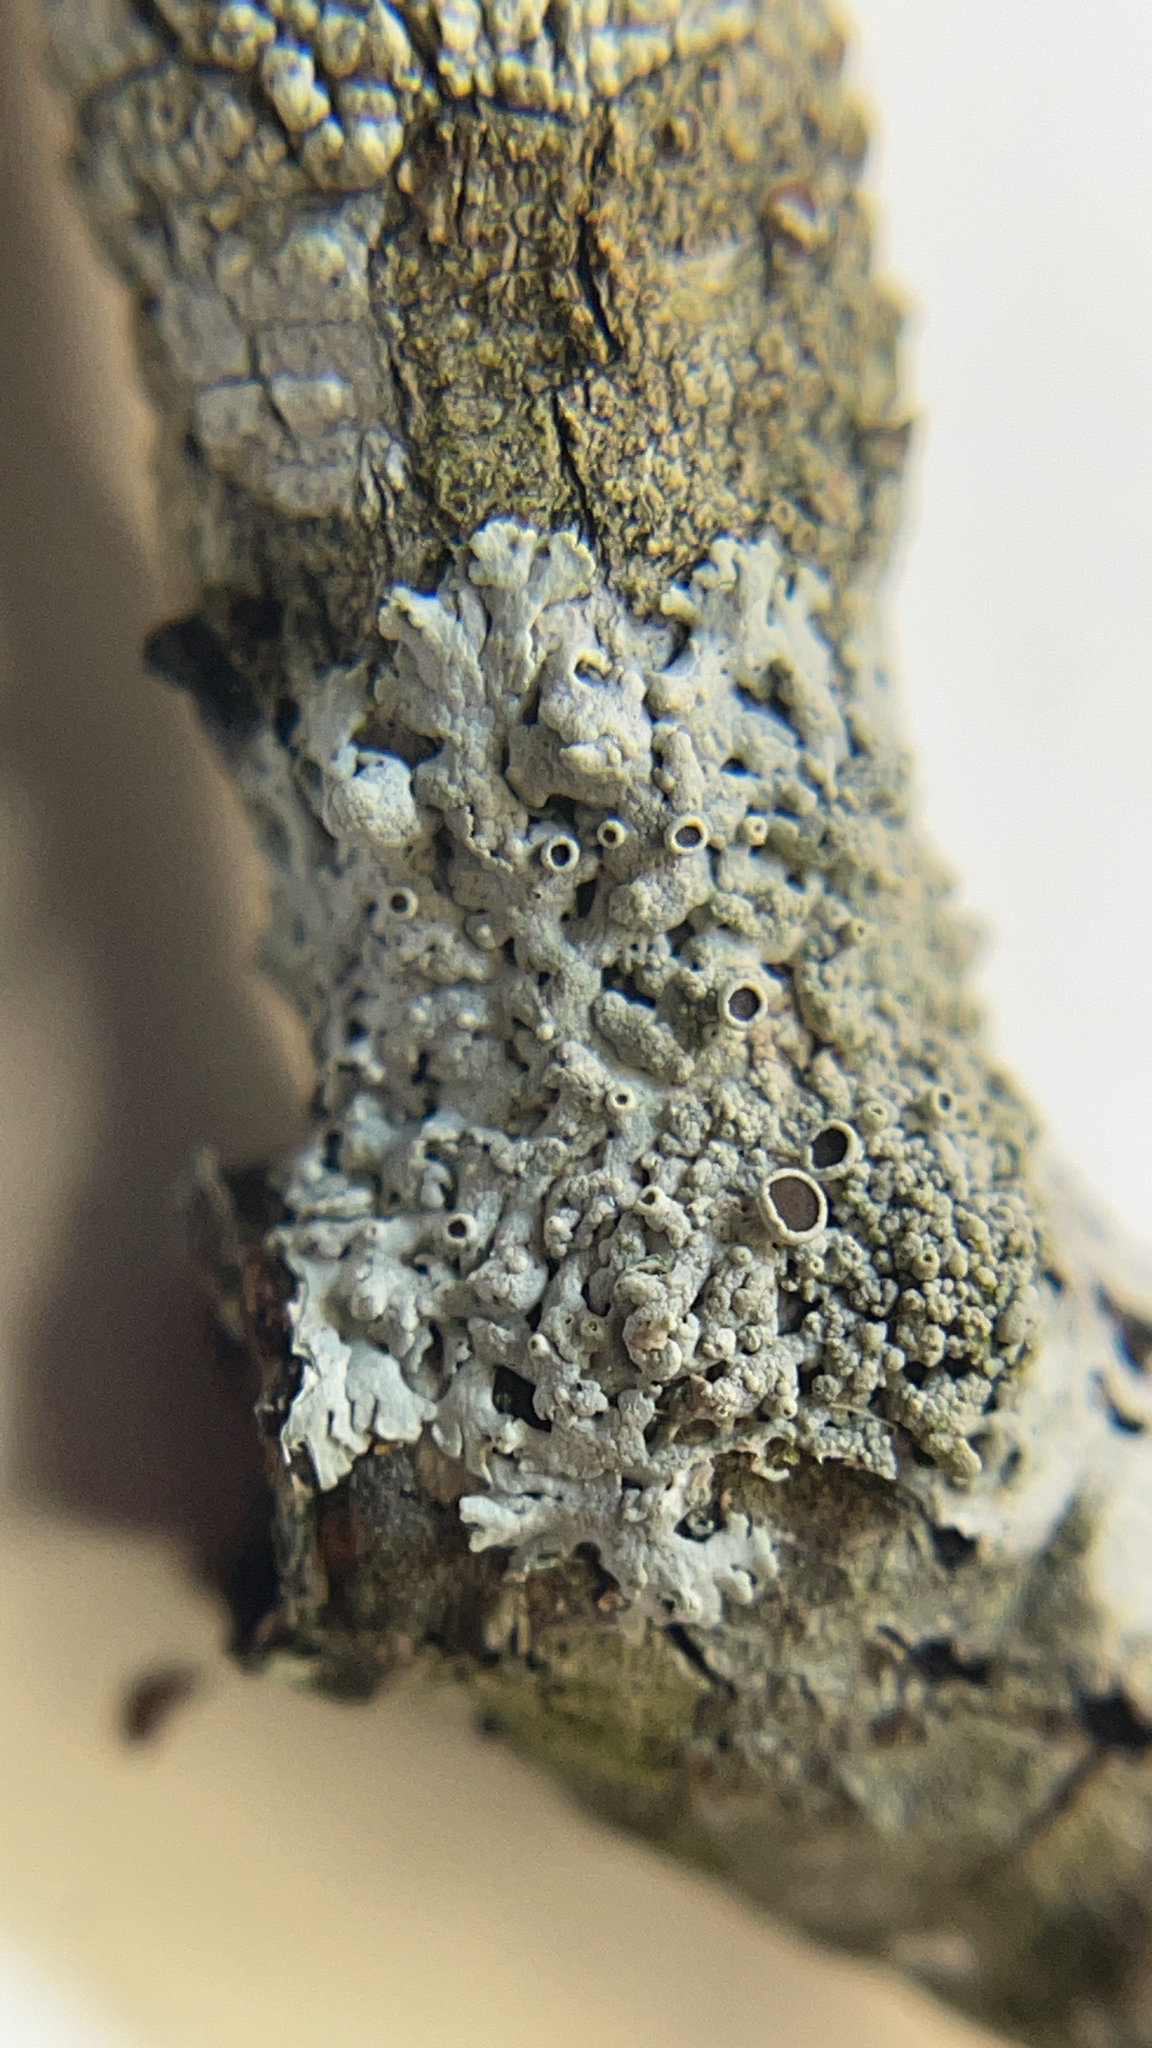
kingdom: Fungi
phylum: Ascomycota
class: Lecanoromycetes
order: Caliciales
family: Physciaceae
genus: Physcia
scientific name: Physcia pumilior
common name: Lesser gray legs
